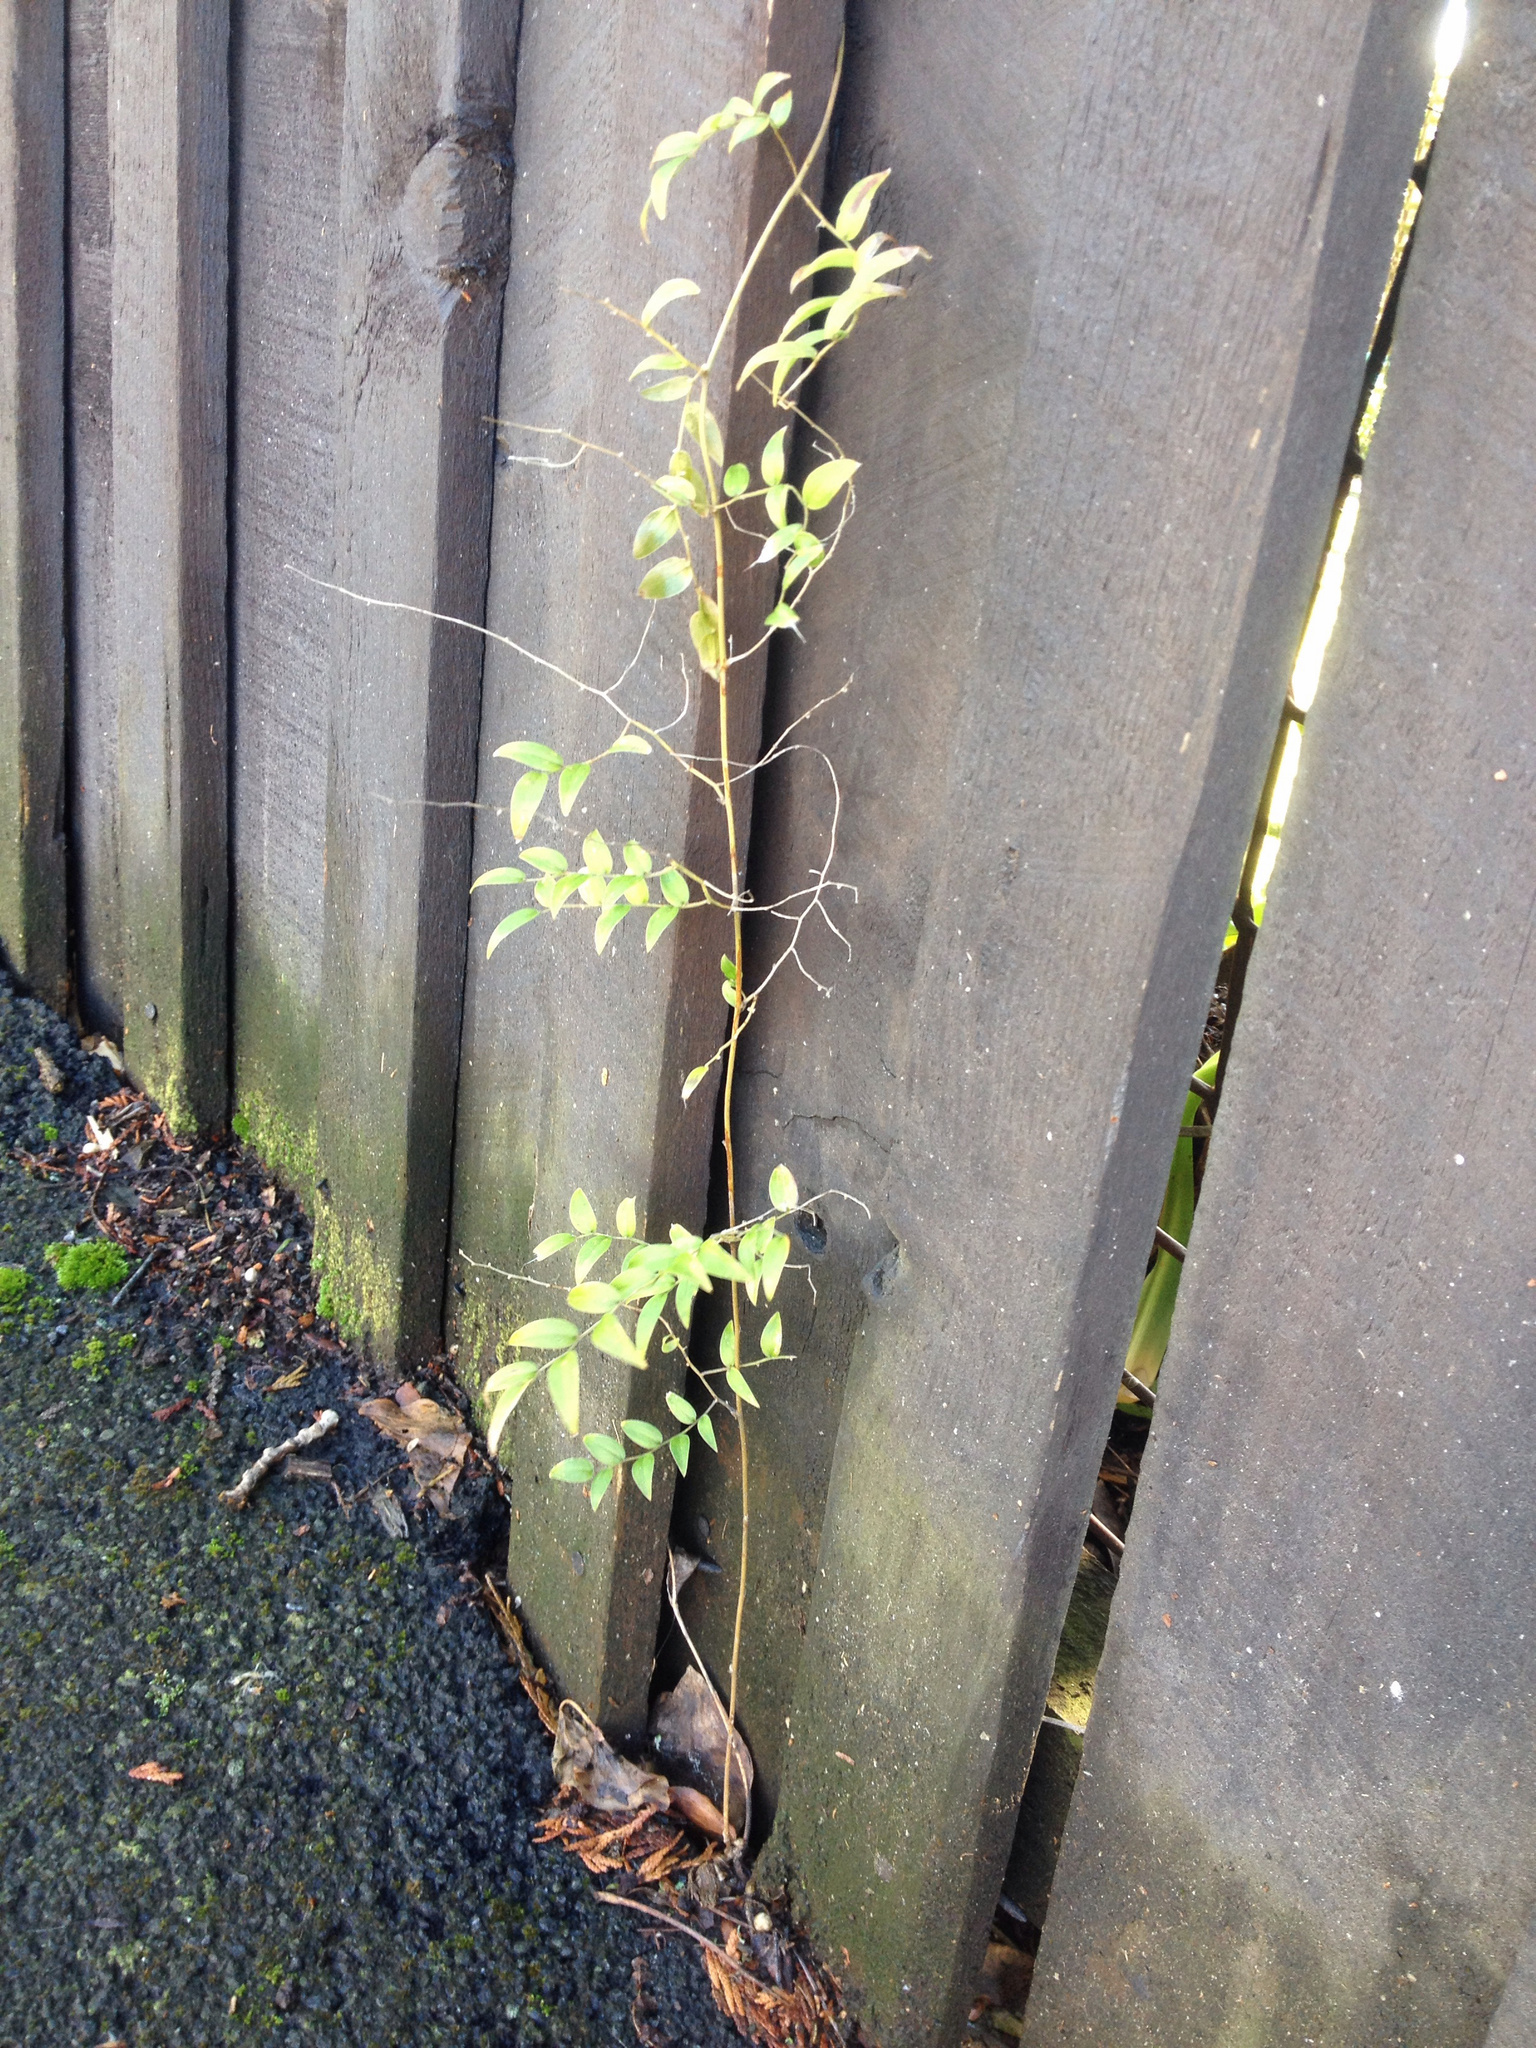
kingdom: Plantae
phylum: Tracheophyta
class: Liliopsida
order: Asparagales
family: Asparagaceae
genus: Asparagus
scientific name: Asparagus asparagoides
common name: African asparagus fern
